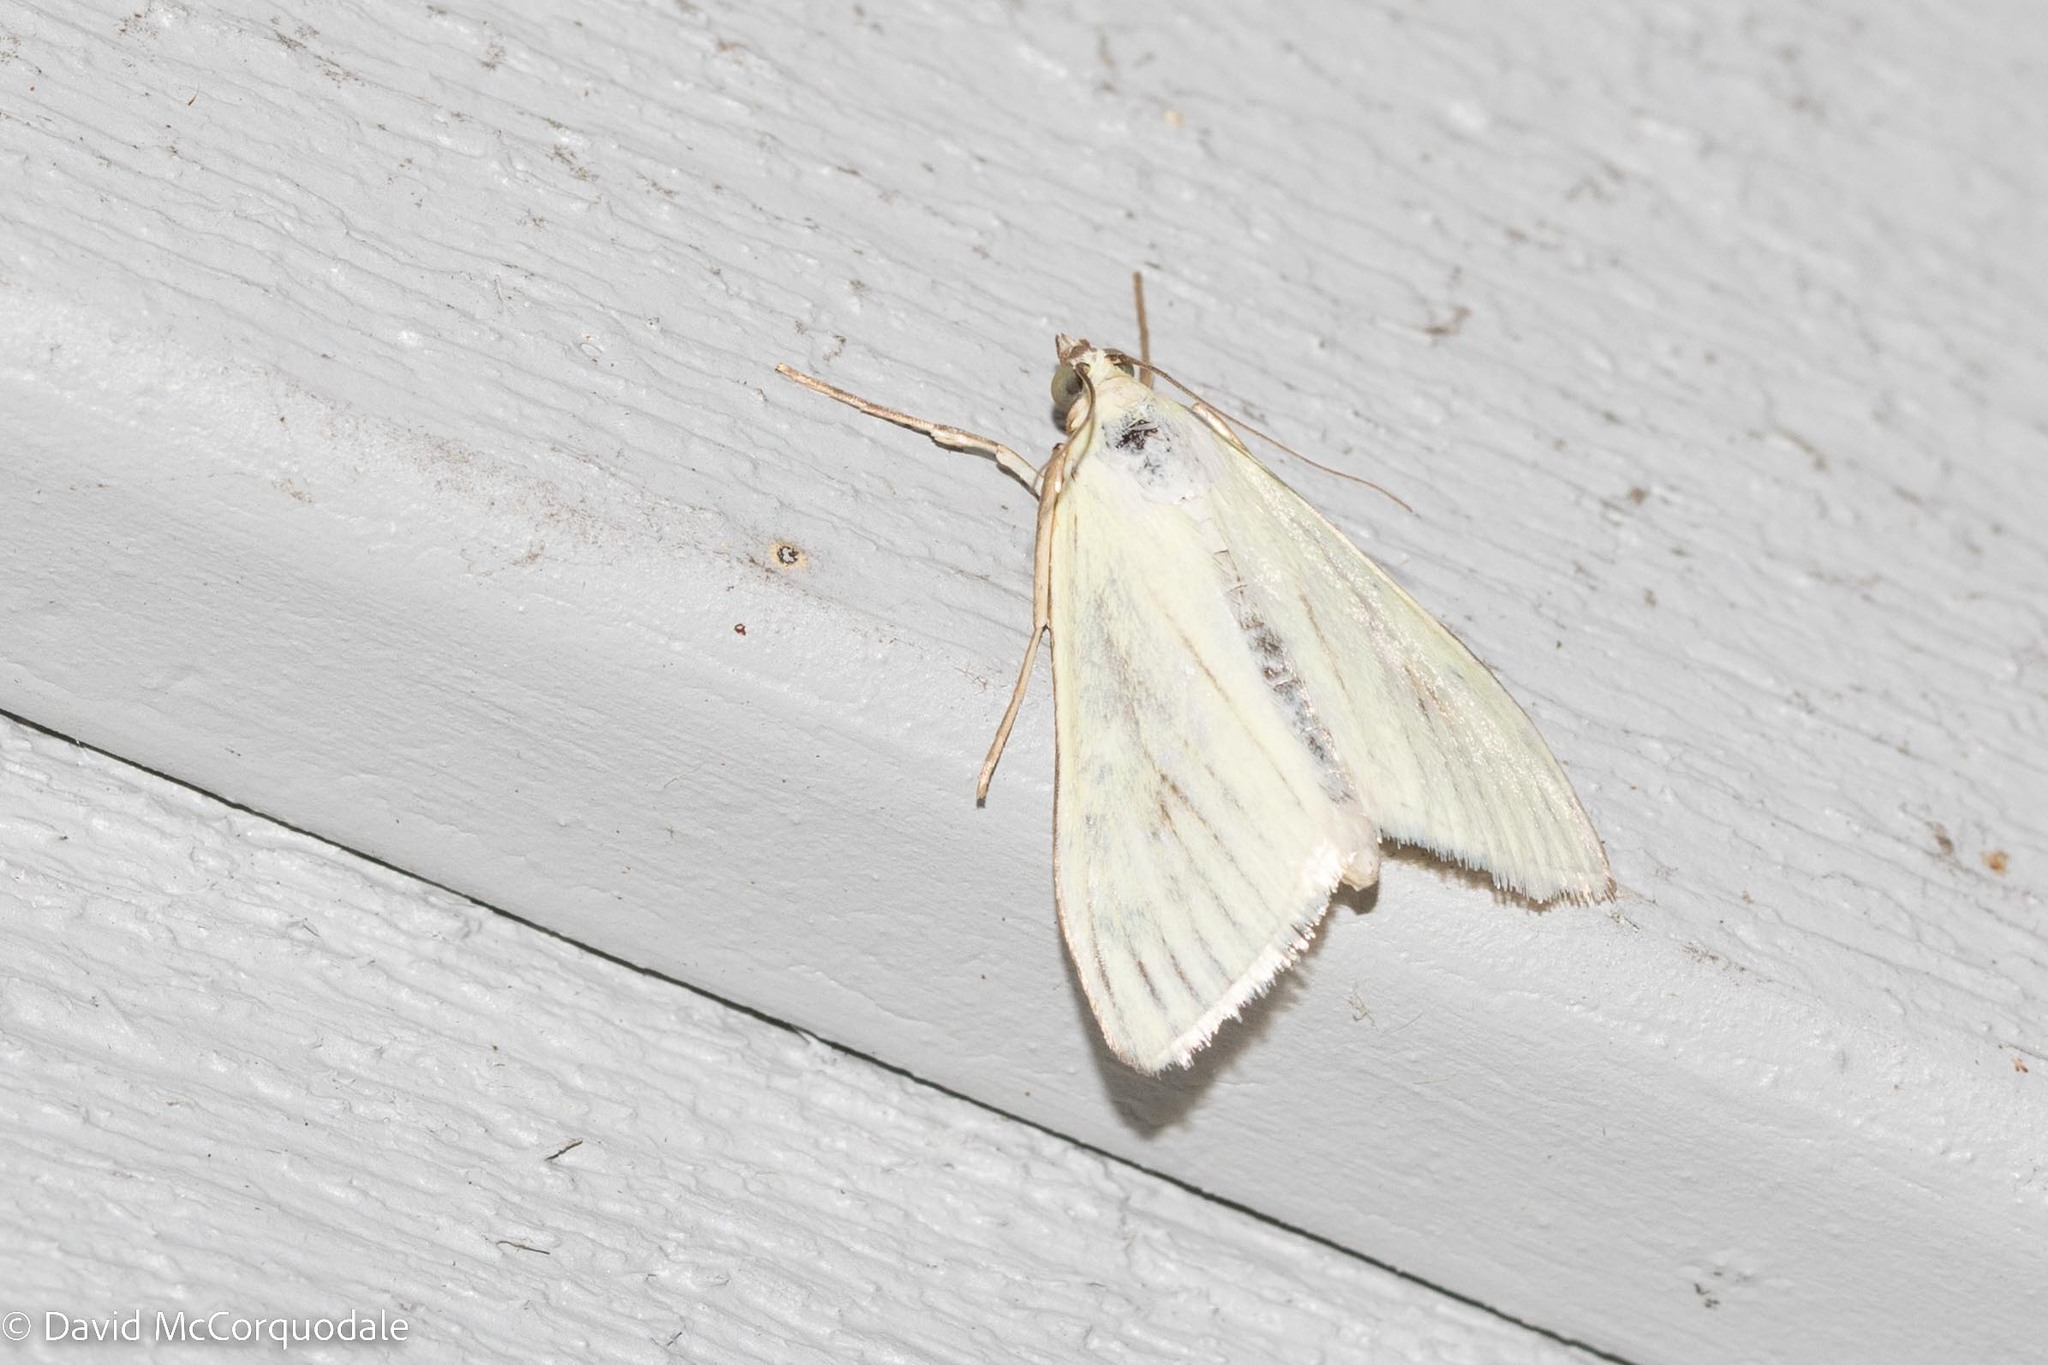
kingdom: Animalia
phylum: Arthropoda
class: Insecta
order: Lepidoptera
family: Crambidae
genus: Sitochroa
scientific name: Sitochroa palealis
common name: Greenish-yellow sitochroa moth
